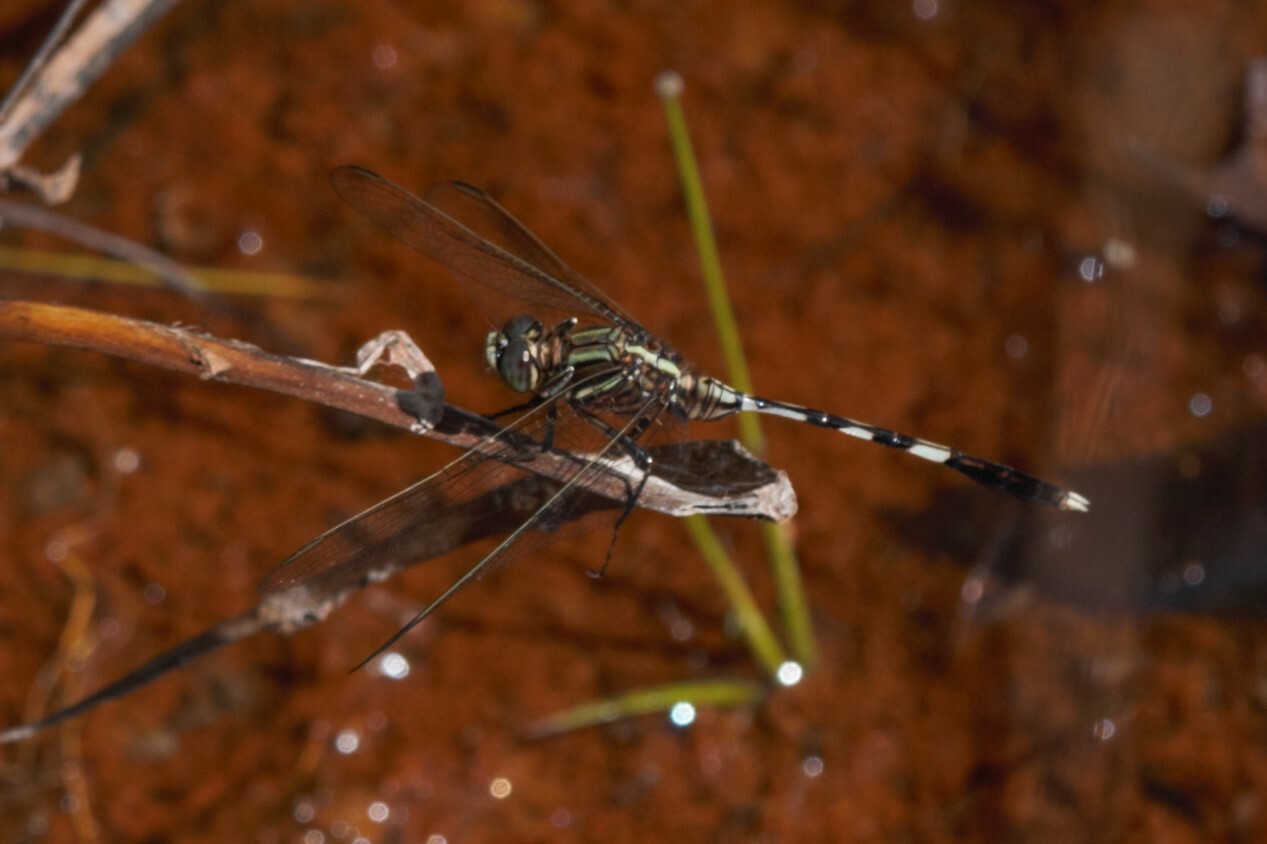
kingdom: Animalia
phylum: Arthropoda
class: Insecta
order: Odonata
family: Libellulidae
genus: Orthetrum
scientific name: Orthetrum sabina
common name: Slender skimmer
